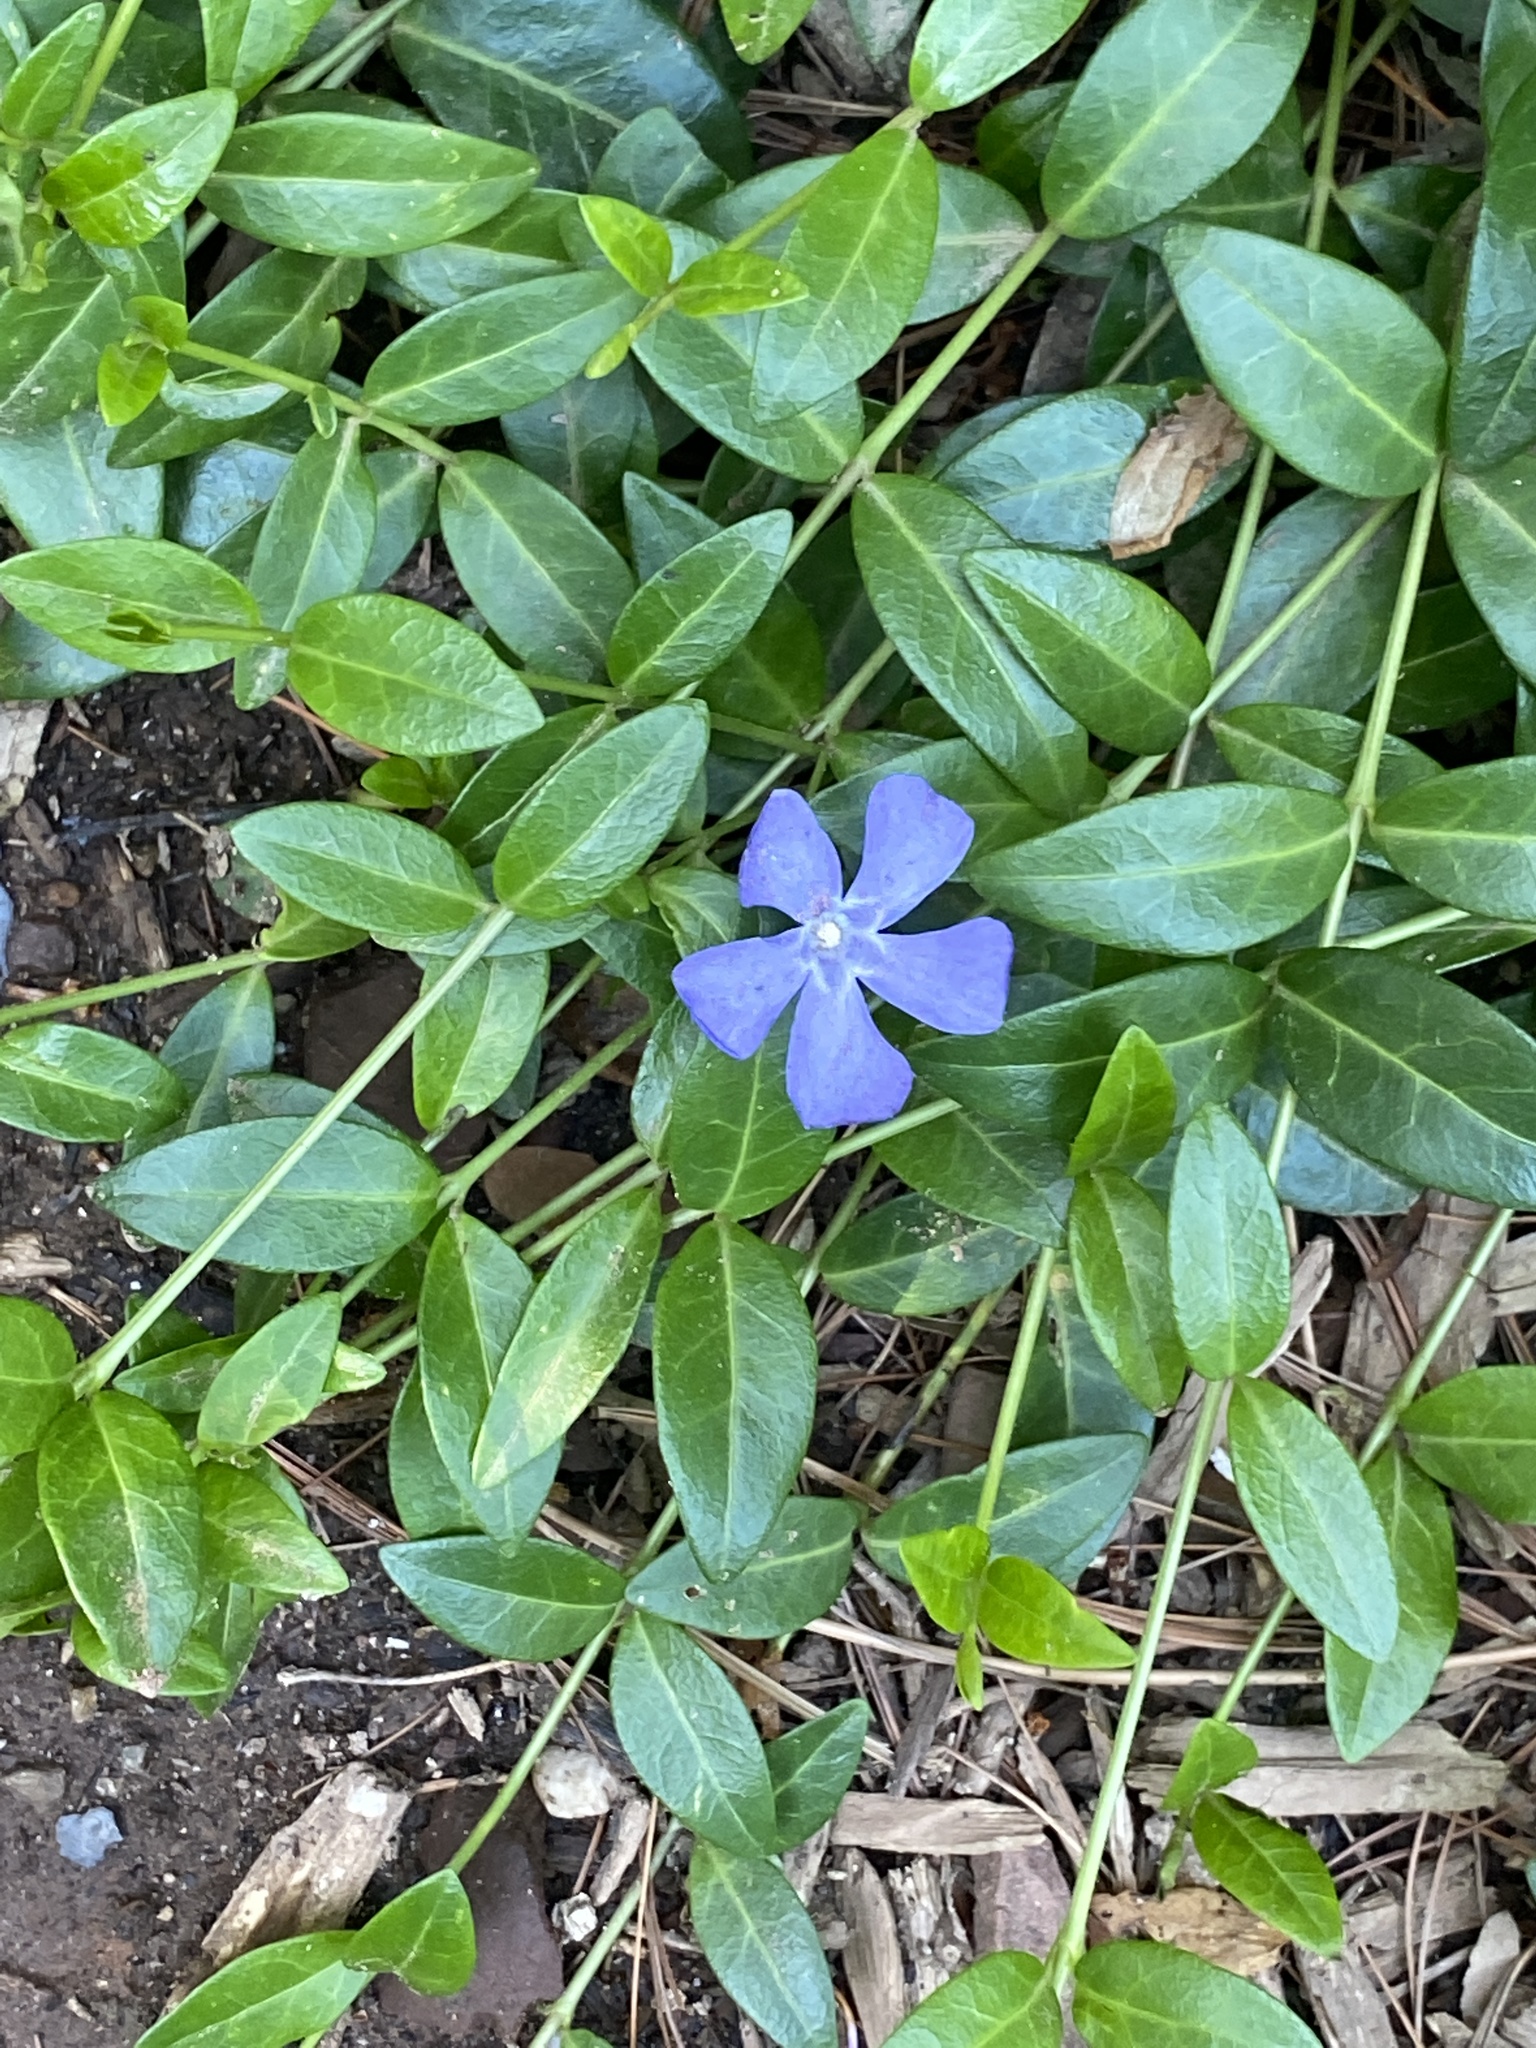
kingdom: Plantae
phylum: Tracheophyta
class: Magnoliopsida
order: Gentianales
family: Apocynaceae
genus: Vinca
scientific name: Vinca minor
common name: Lesser periwinkle
